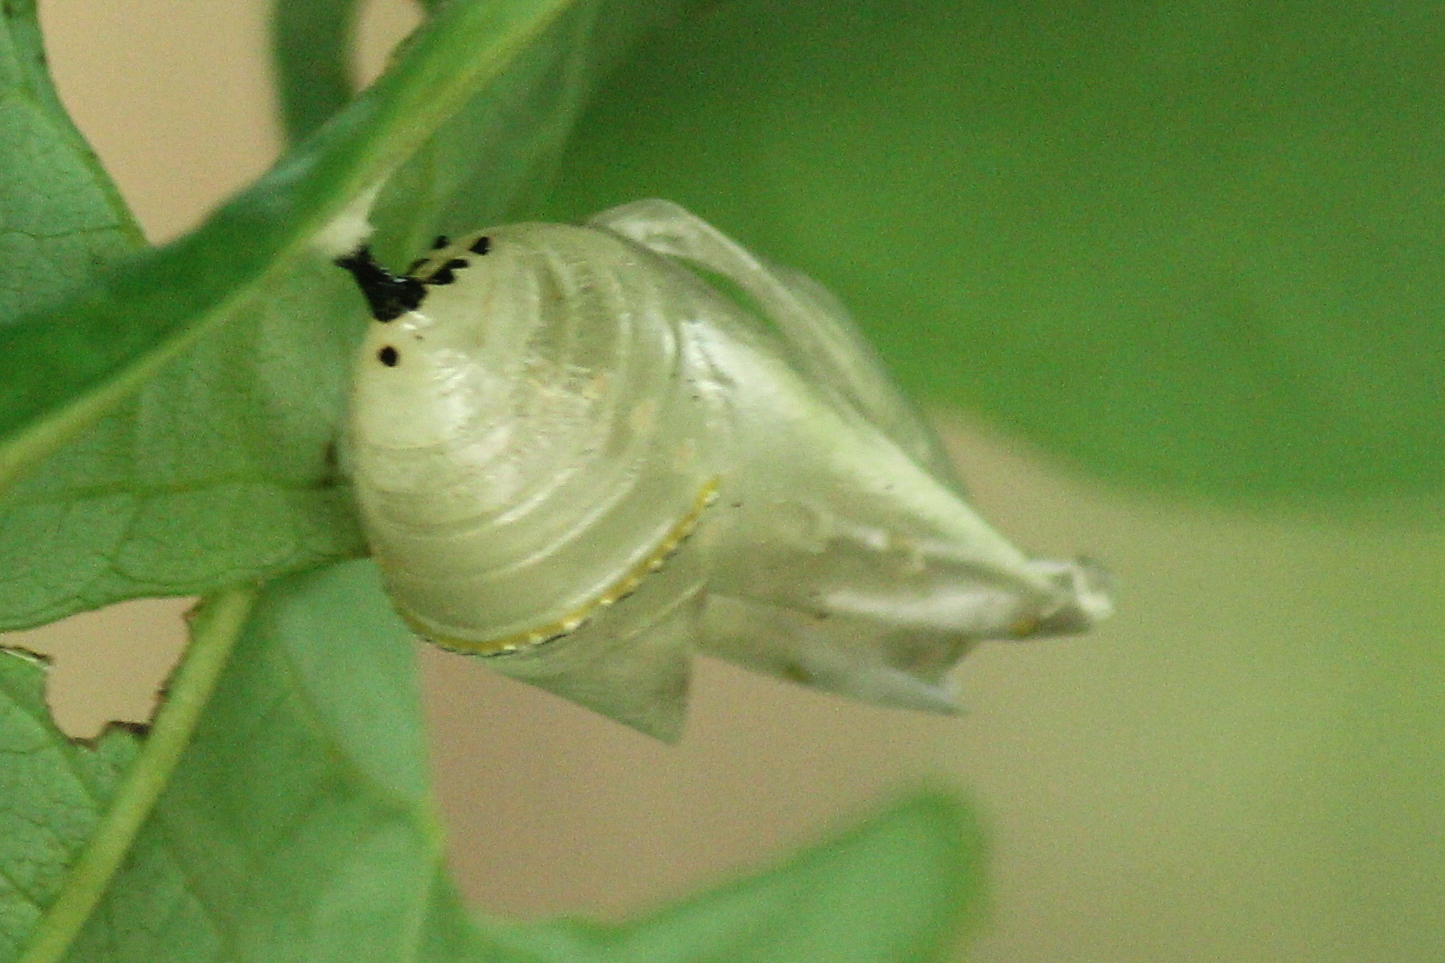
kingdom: Animalia
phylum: Arthropoda
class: Insecta
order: Lepidoptera
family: Nymphalidae
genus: Danaus
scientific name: Danaus plexippus
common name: Monarch
